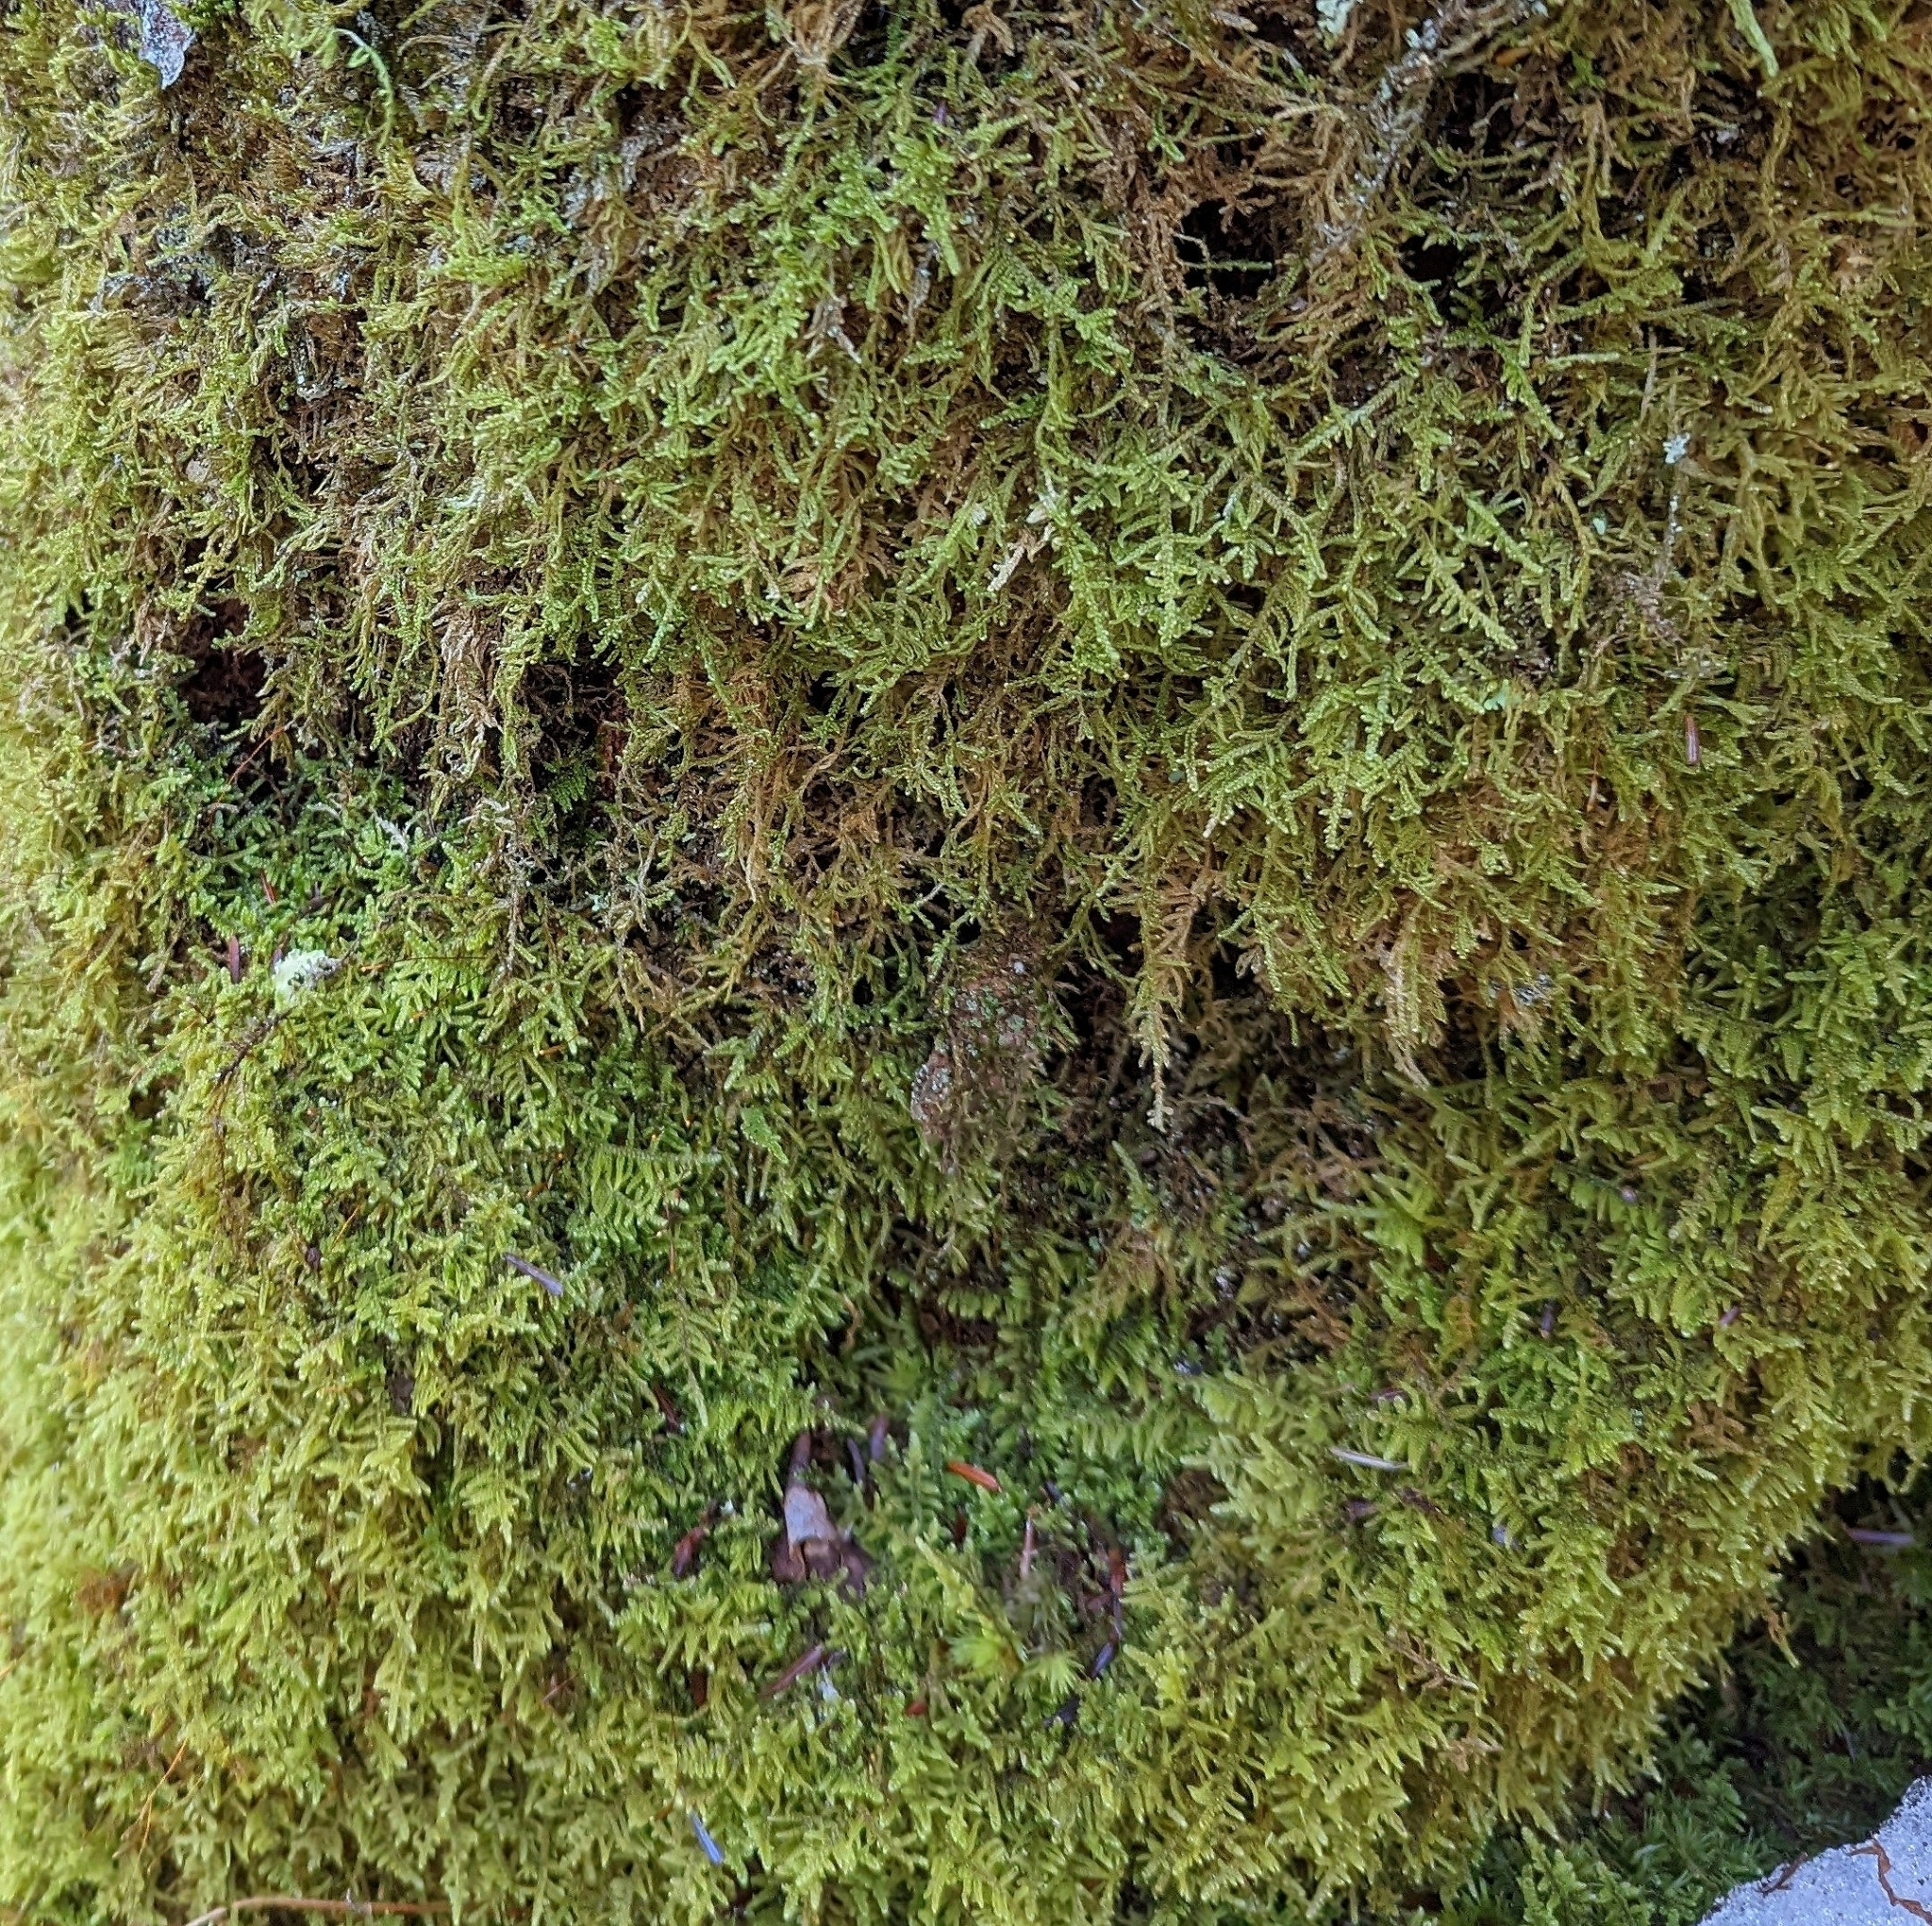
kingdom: Plantae
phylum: Bryophyta
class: Bryopsida
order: Hypnales
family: Callicladiaceae
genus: Callicladium
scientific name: Callicladium imponens
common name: Brocade moss
